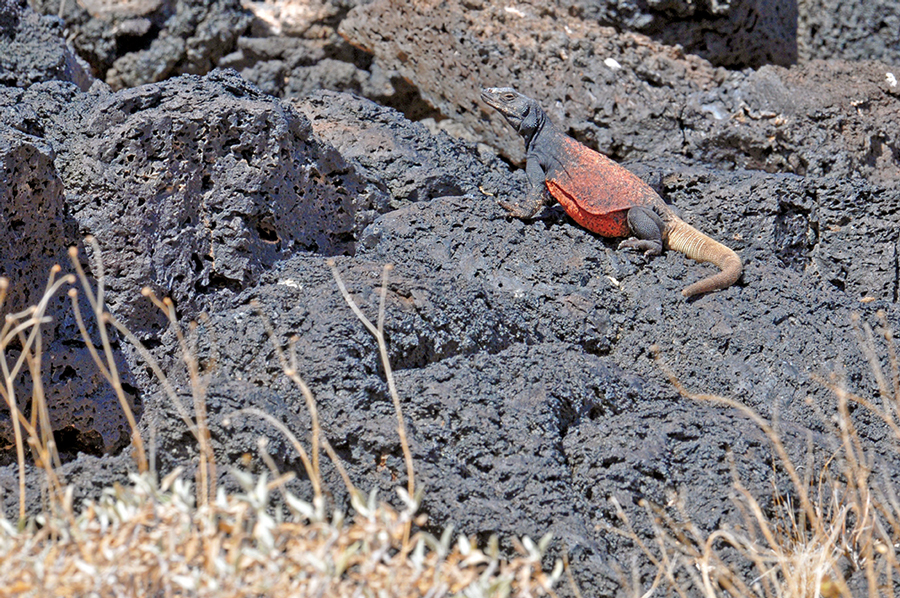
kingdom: Animalia
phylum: Chordata
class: Squamata
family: Iguanidae
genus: Sauromalus
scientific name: Sauromalus ater
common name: Northern chuckwalla
